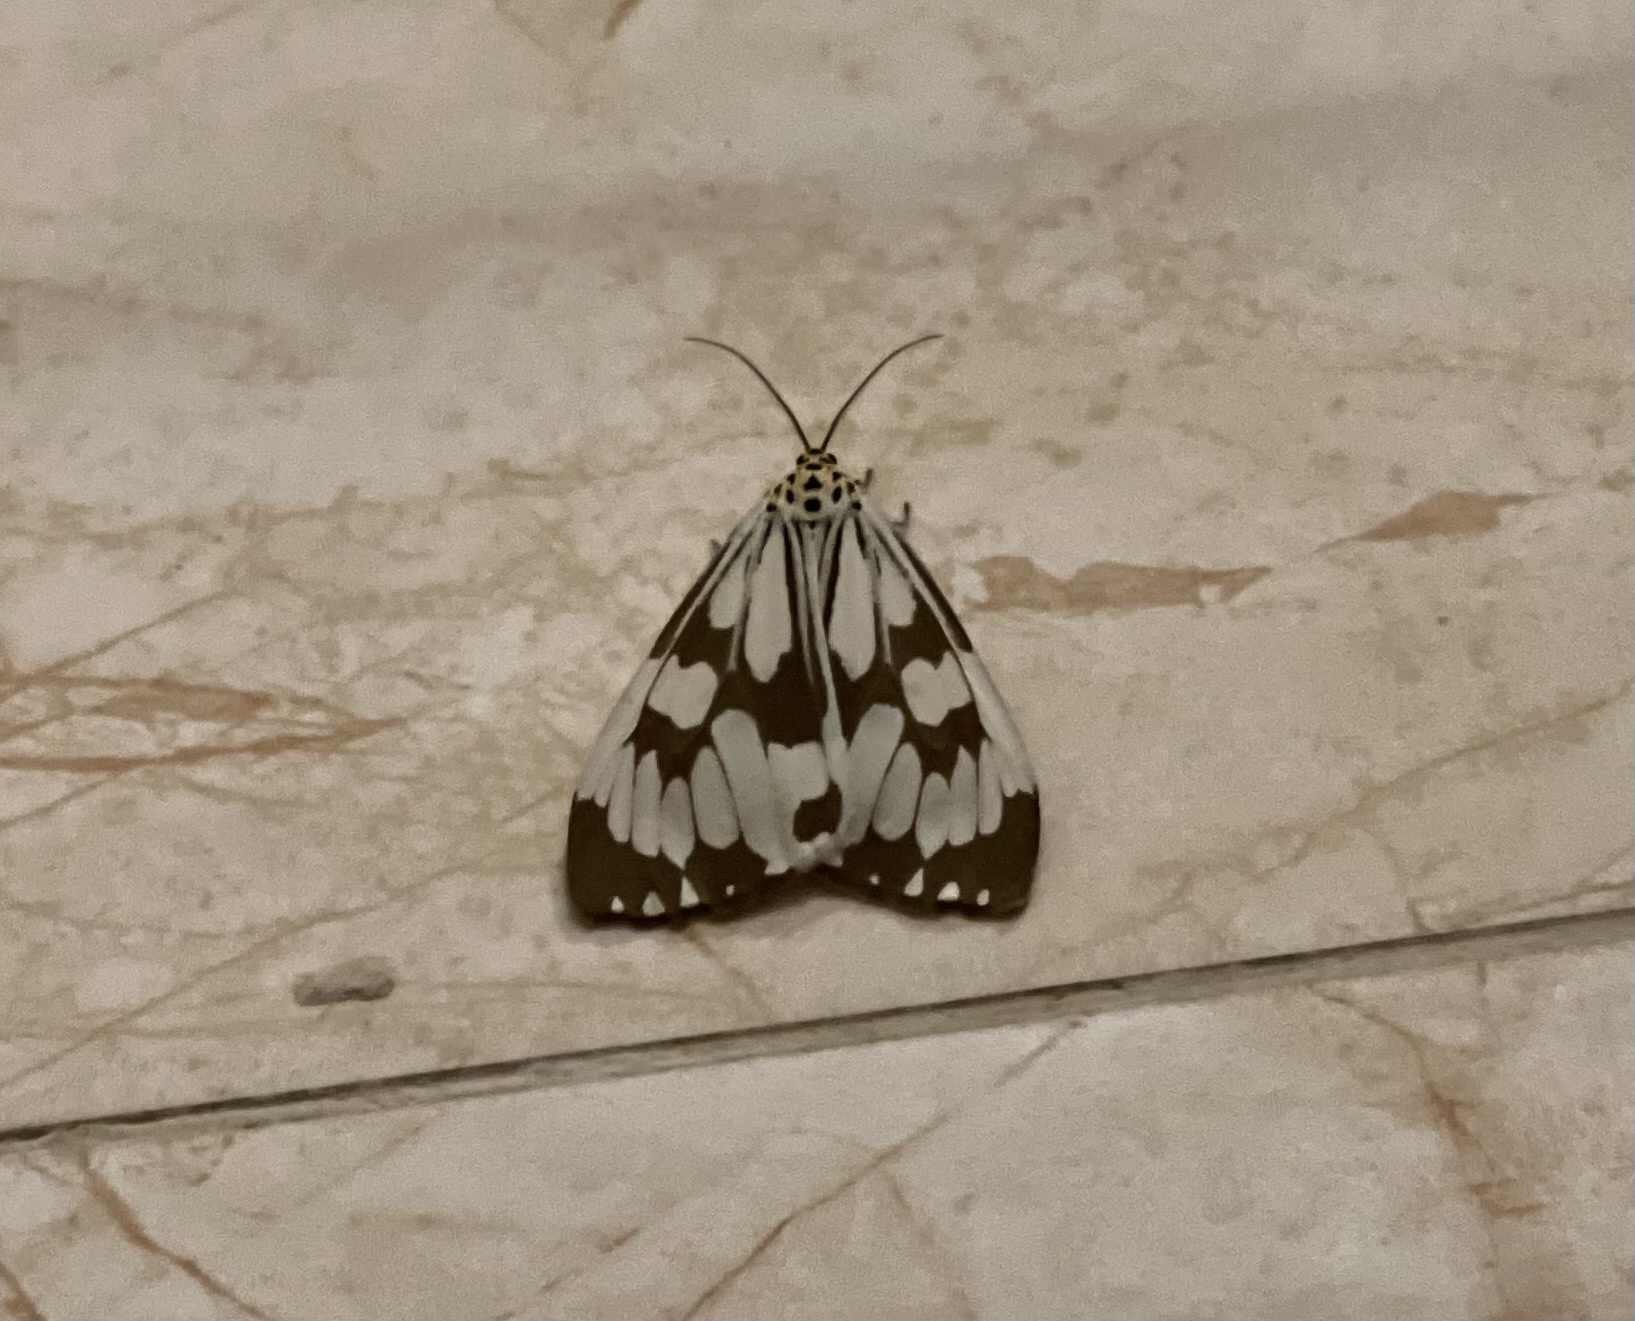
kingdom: Animalia
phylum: Arthropoda
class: Insecta
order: Lepidoptera
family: Erebidae
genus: Nyctemera
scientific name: Nyctemera adversata
